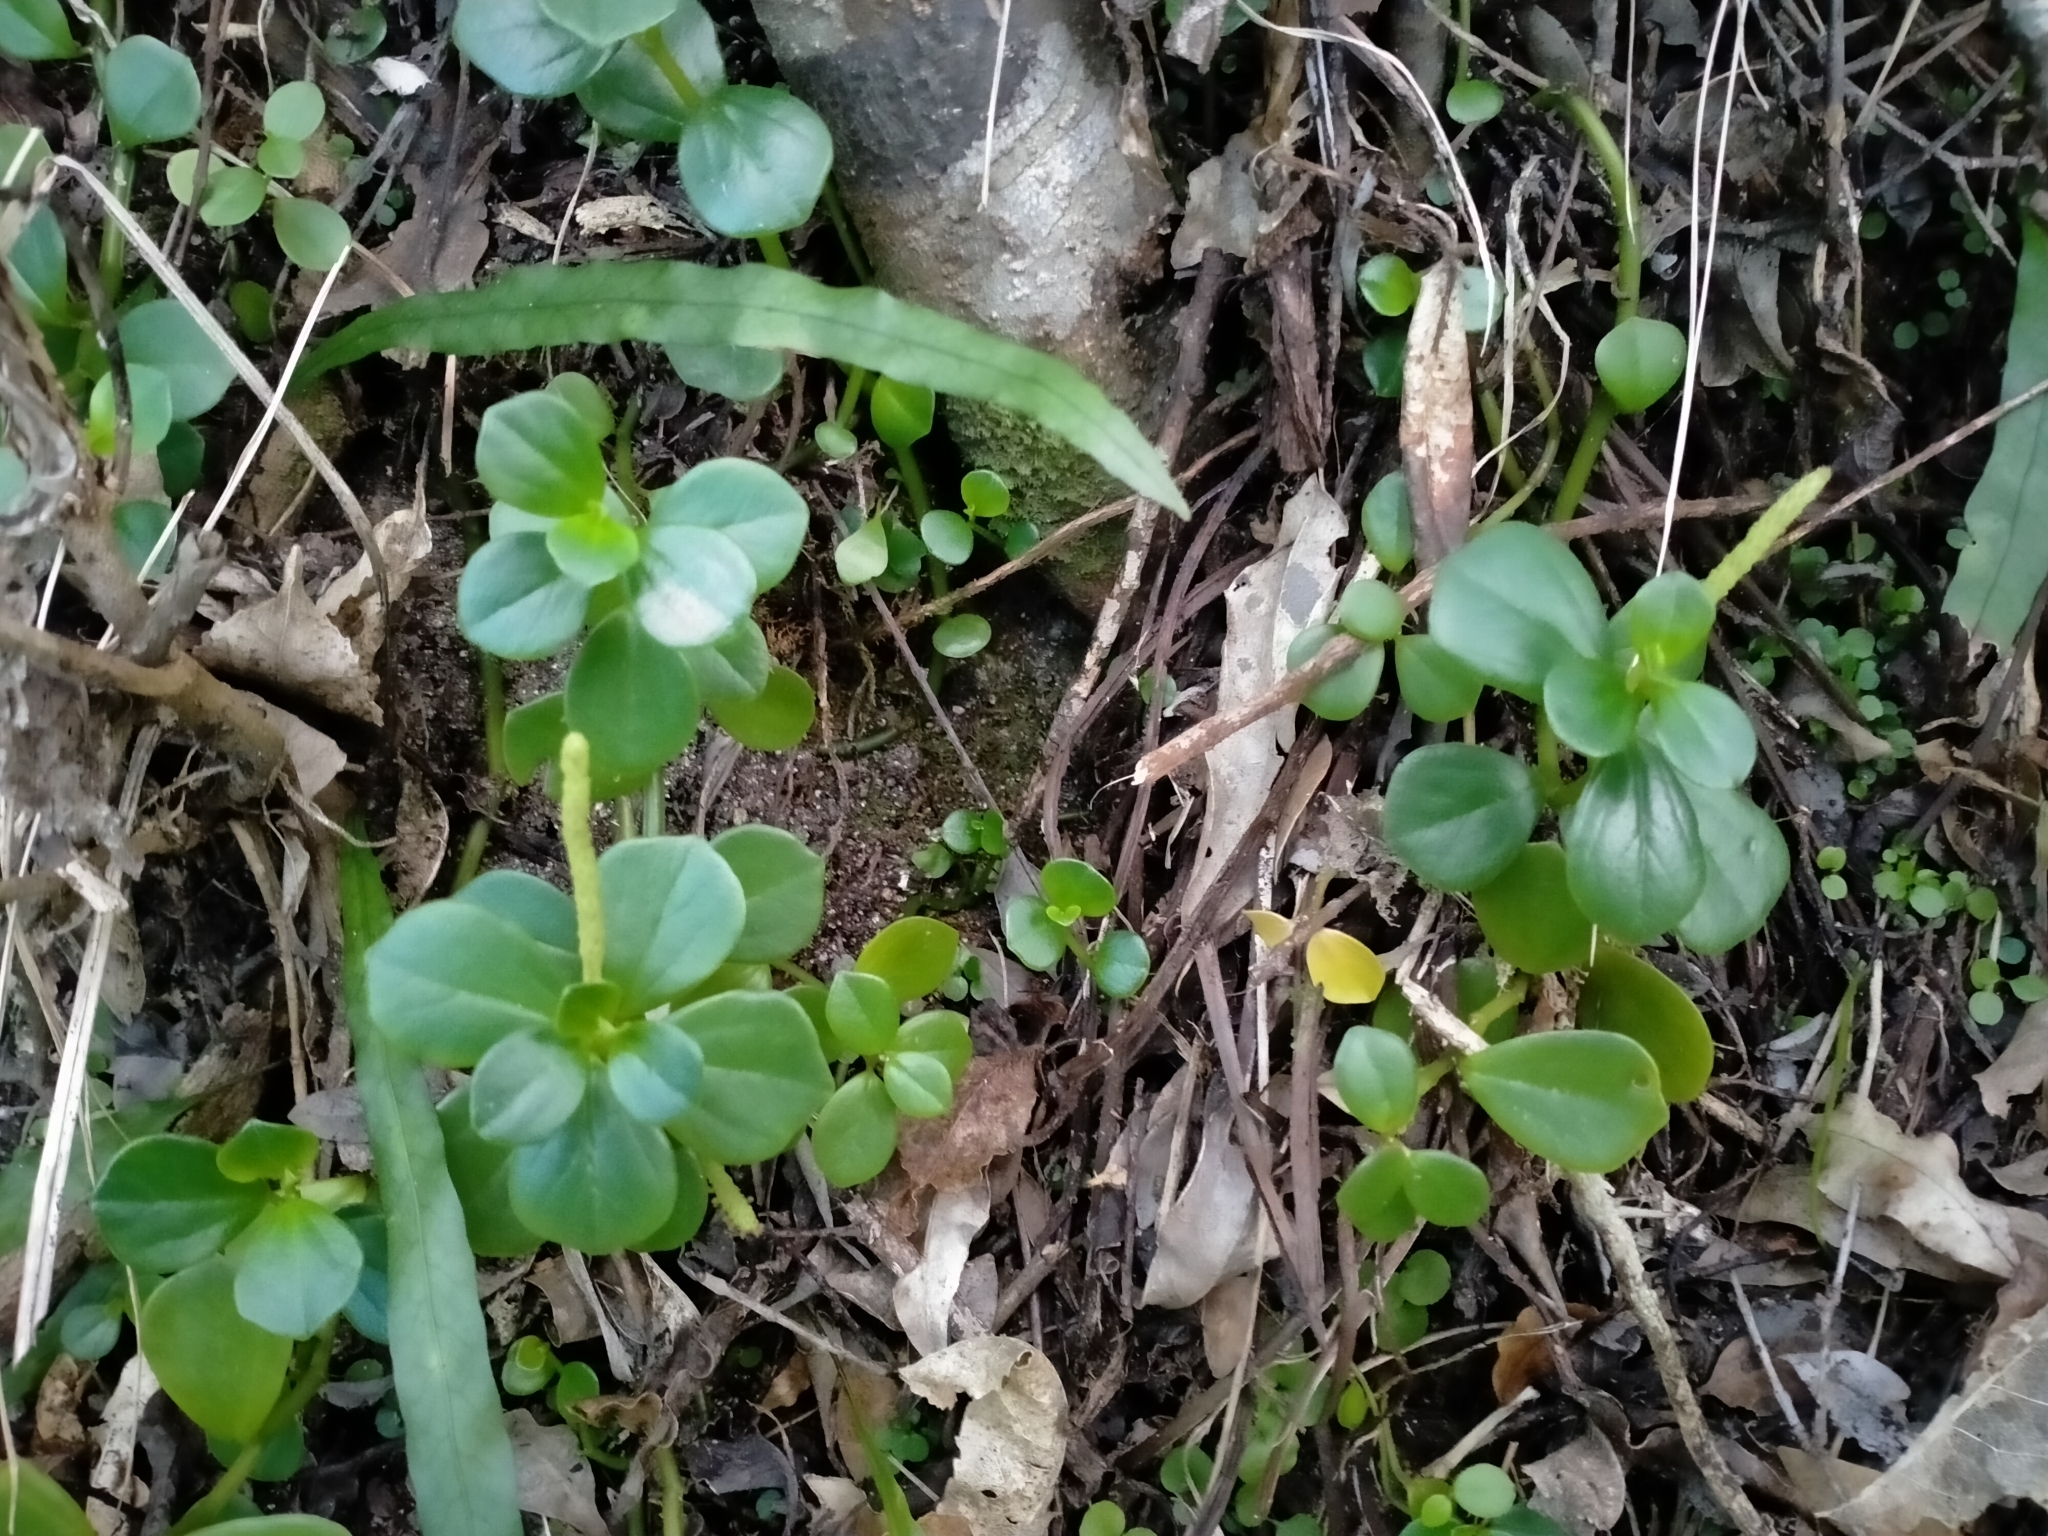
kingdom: Plantae
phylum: Tracheophyta
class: Magnoliopsida
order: Piperales
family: Piperaceae
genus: Peperomia
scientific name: Peperomia urvilleana
